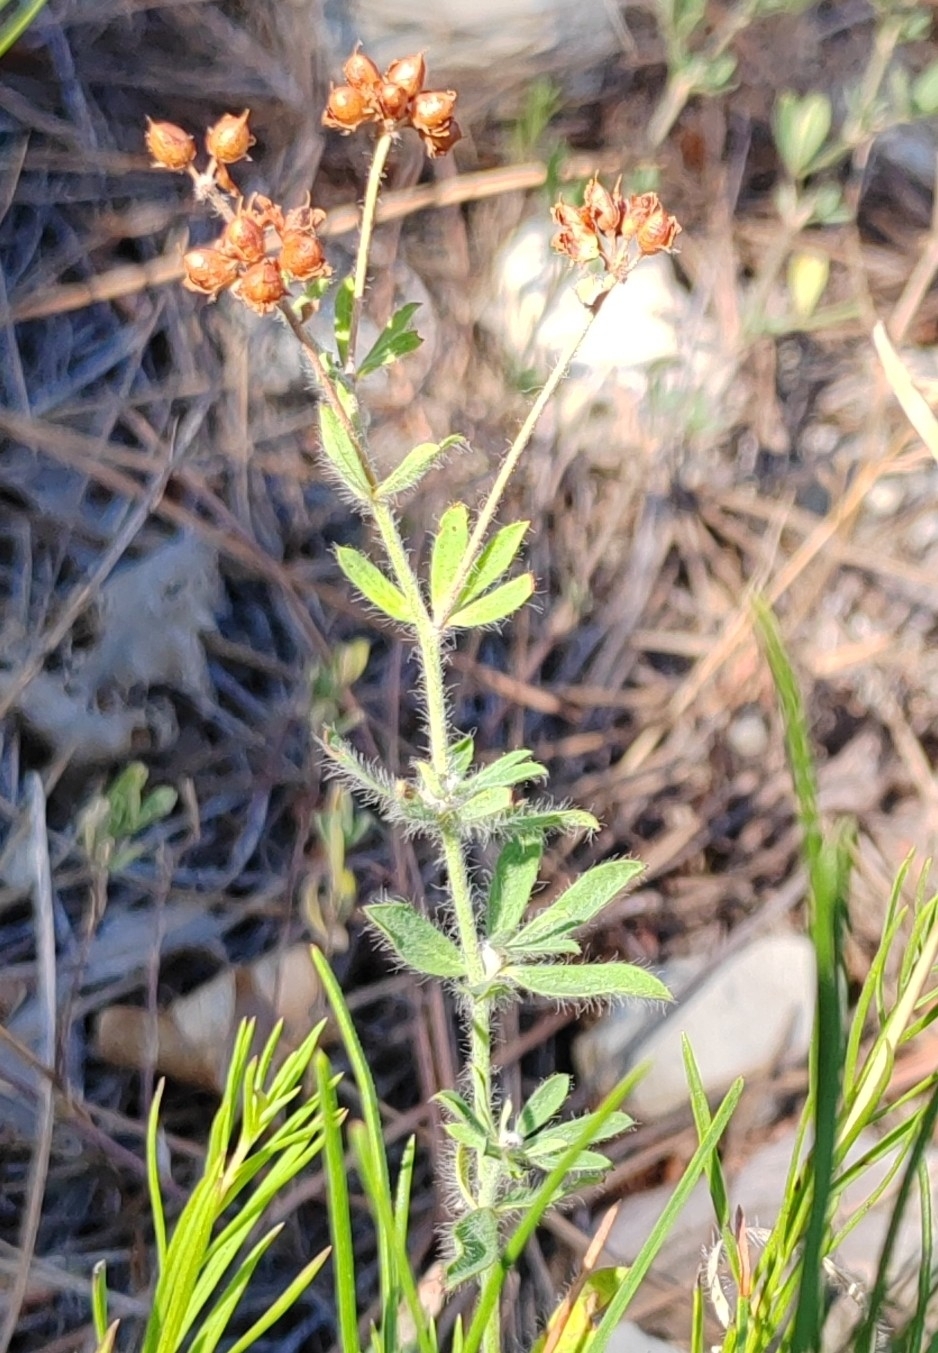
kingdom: Plantae
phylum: Tracheophyta
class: Magnoliopsida
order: Fabales
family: Fabaceae
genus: Lotus
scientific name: Lotus herbaceus
